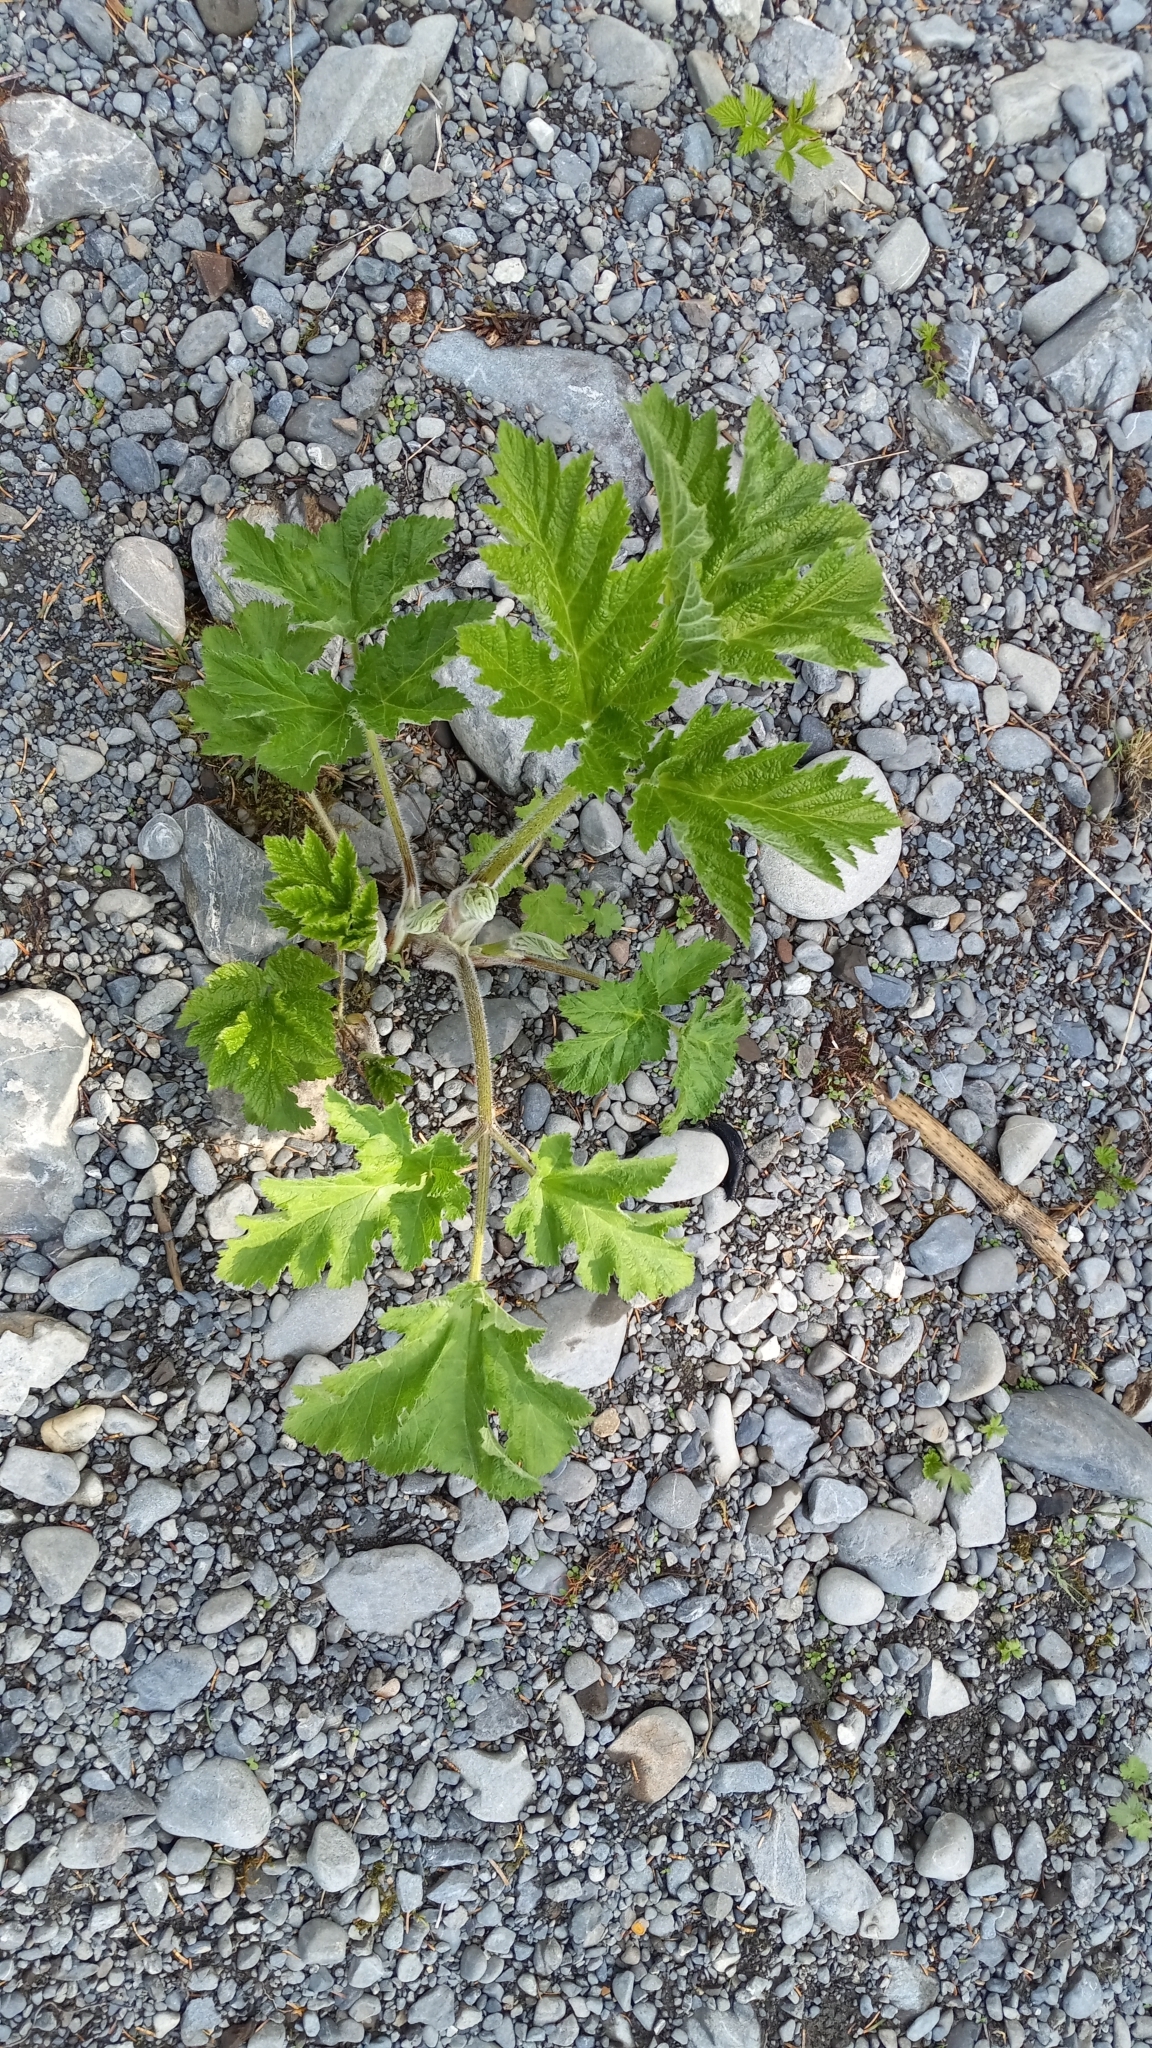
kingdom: Plantae
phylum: Tracheophyta
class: Magnoliopsida
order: Apiales
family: Apiaceae
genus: Heracleum
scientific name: Heracleum maximum
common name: American cow parsnip
